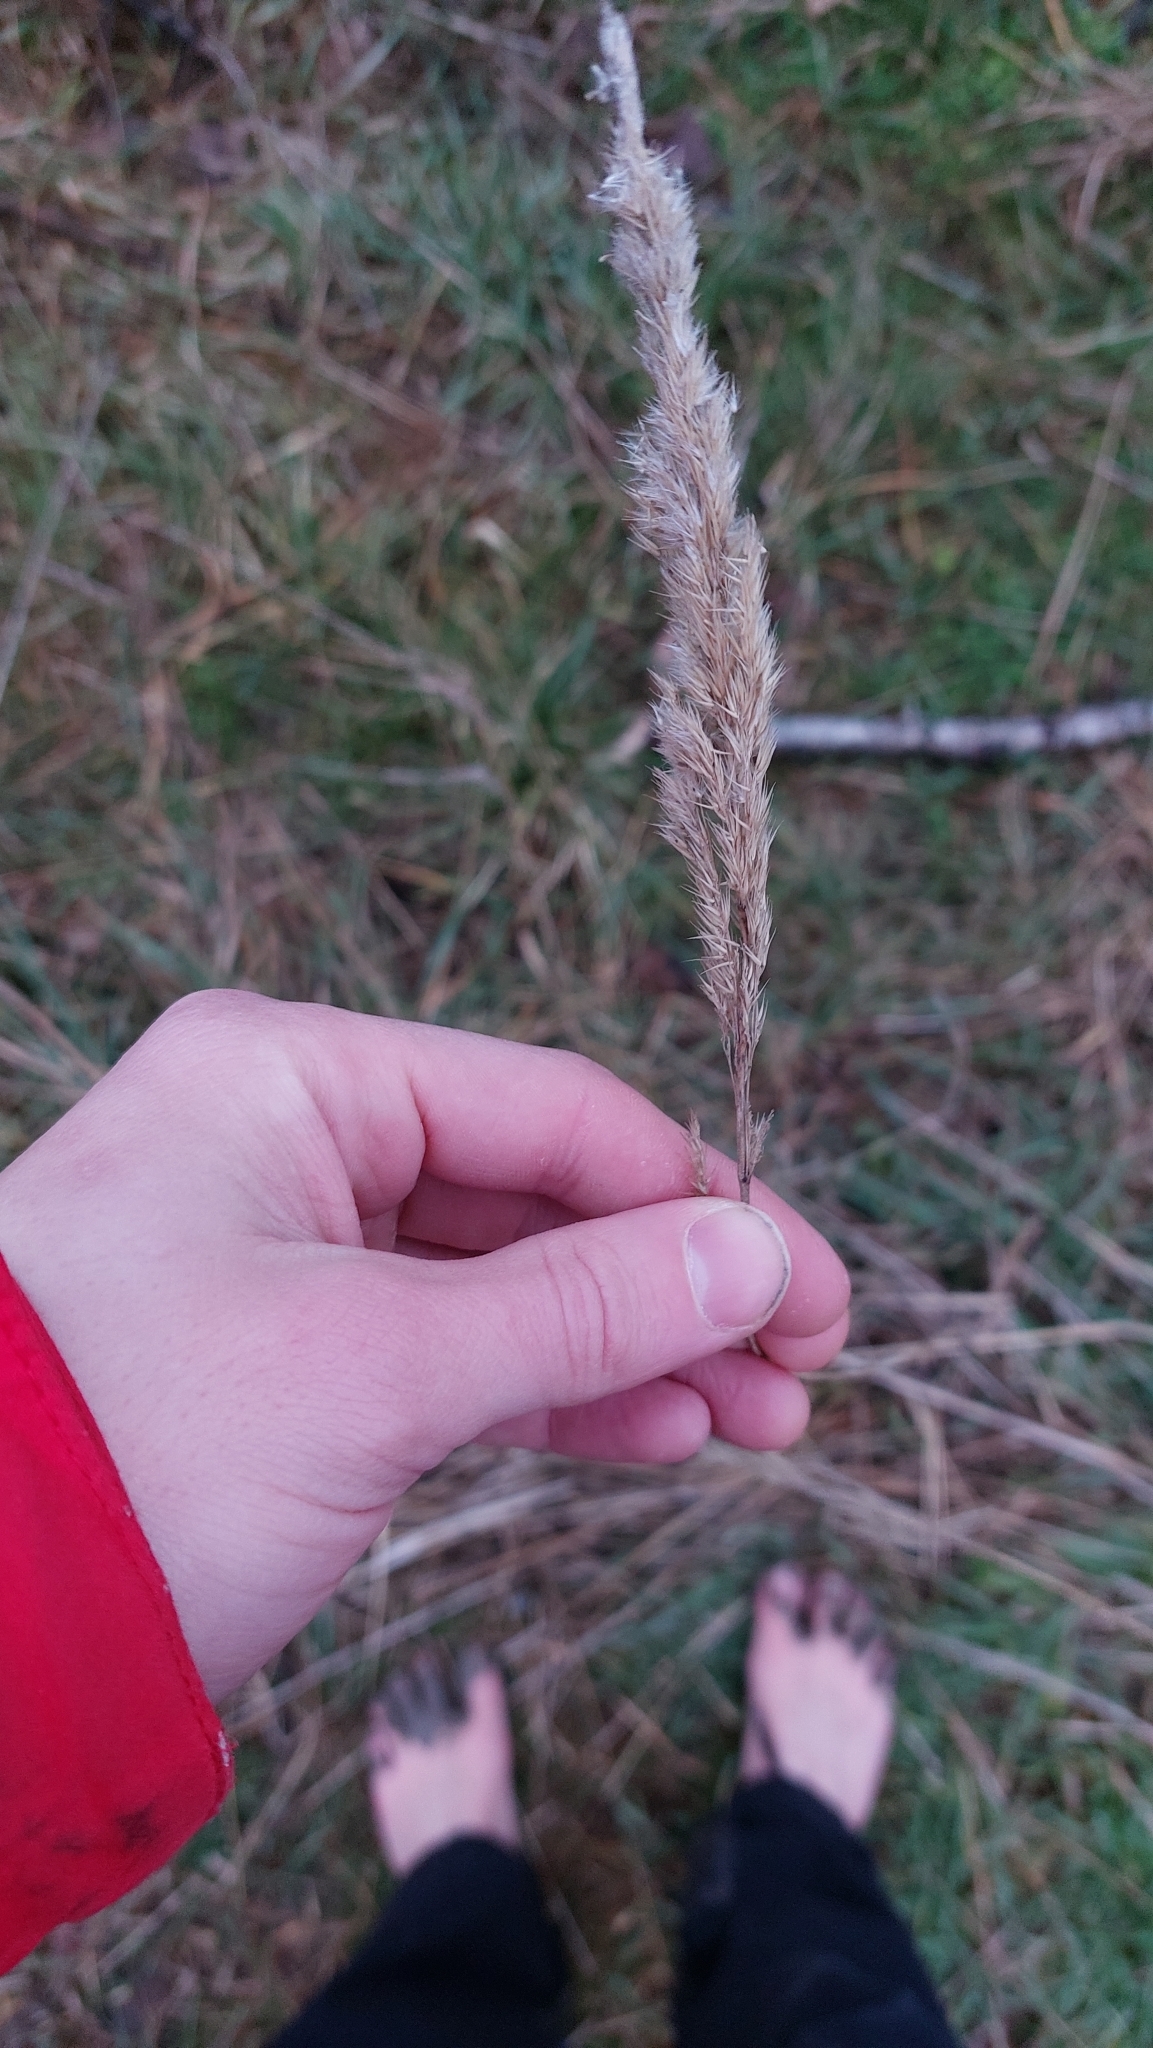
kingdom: Plantae
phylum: Tracheophyta
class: Liliopsida
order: Poales
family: Poaceae
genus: Calamagrostis
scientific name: Calamagrostis epigejos
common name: Wood small-reed
